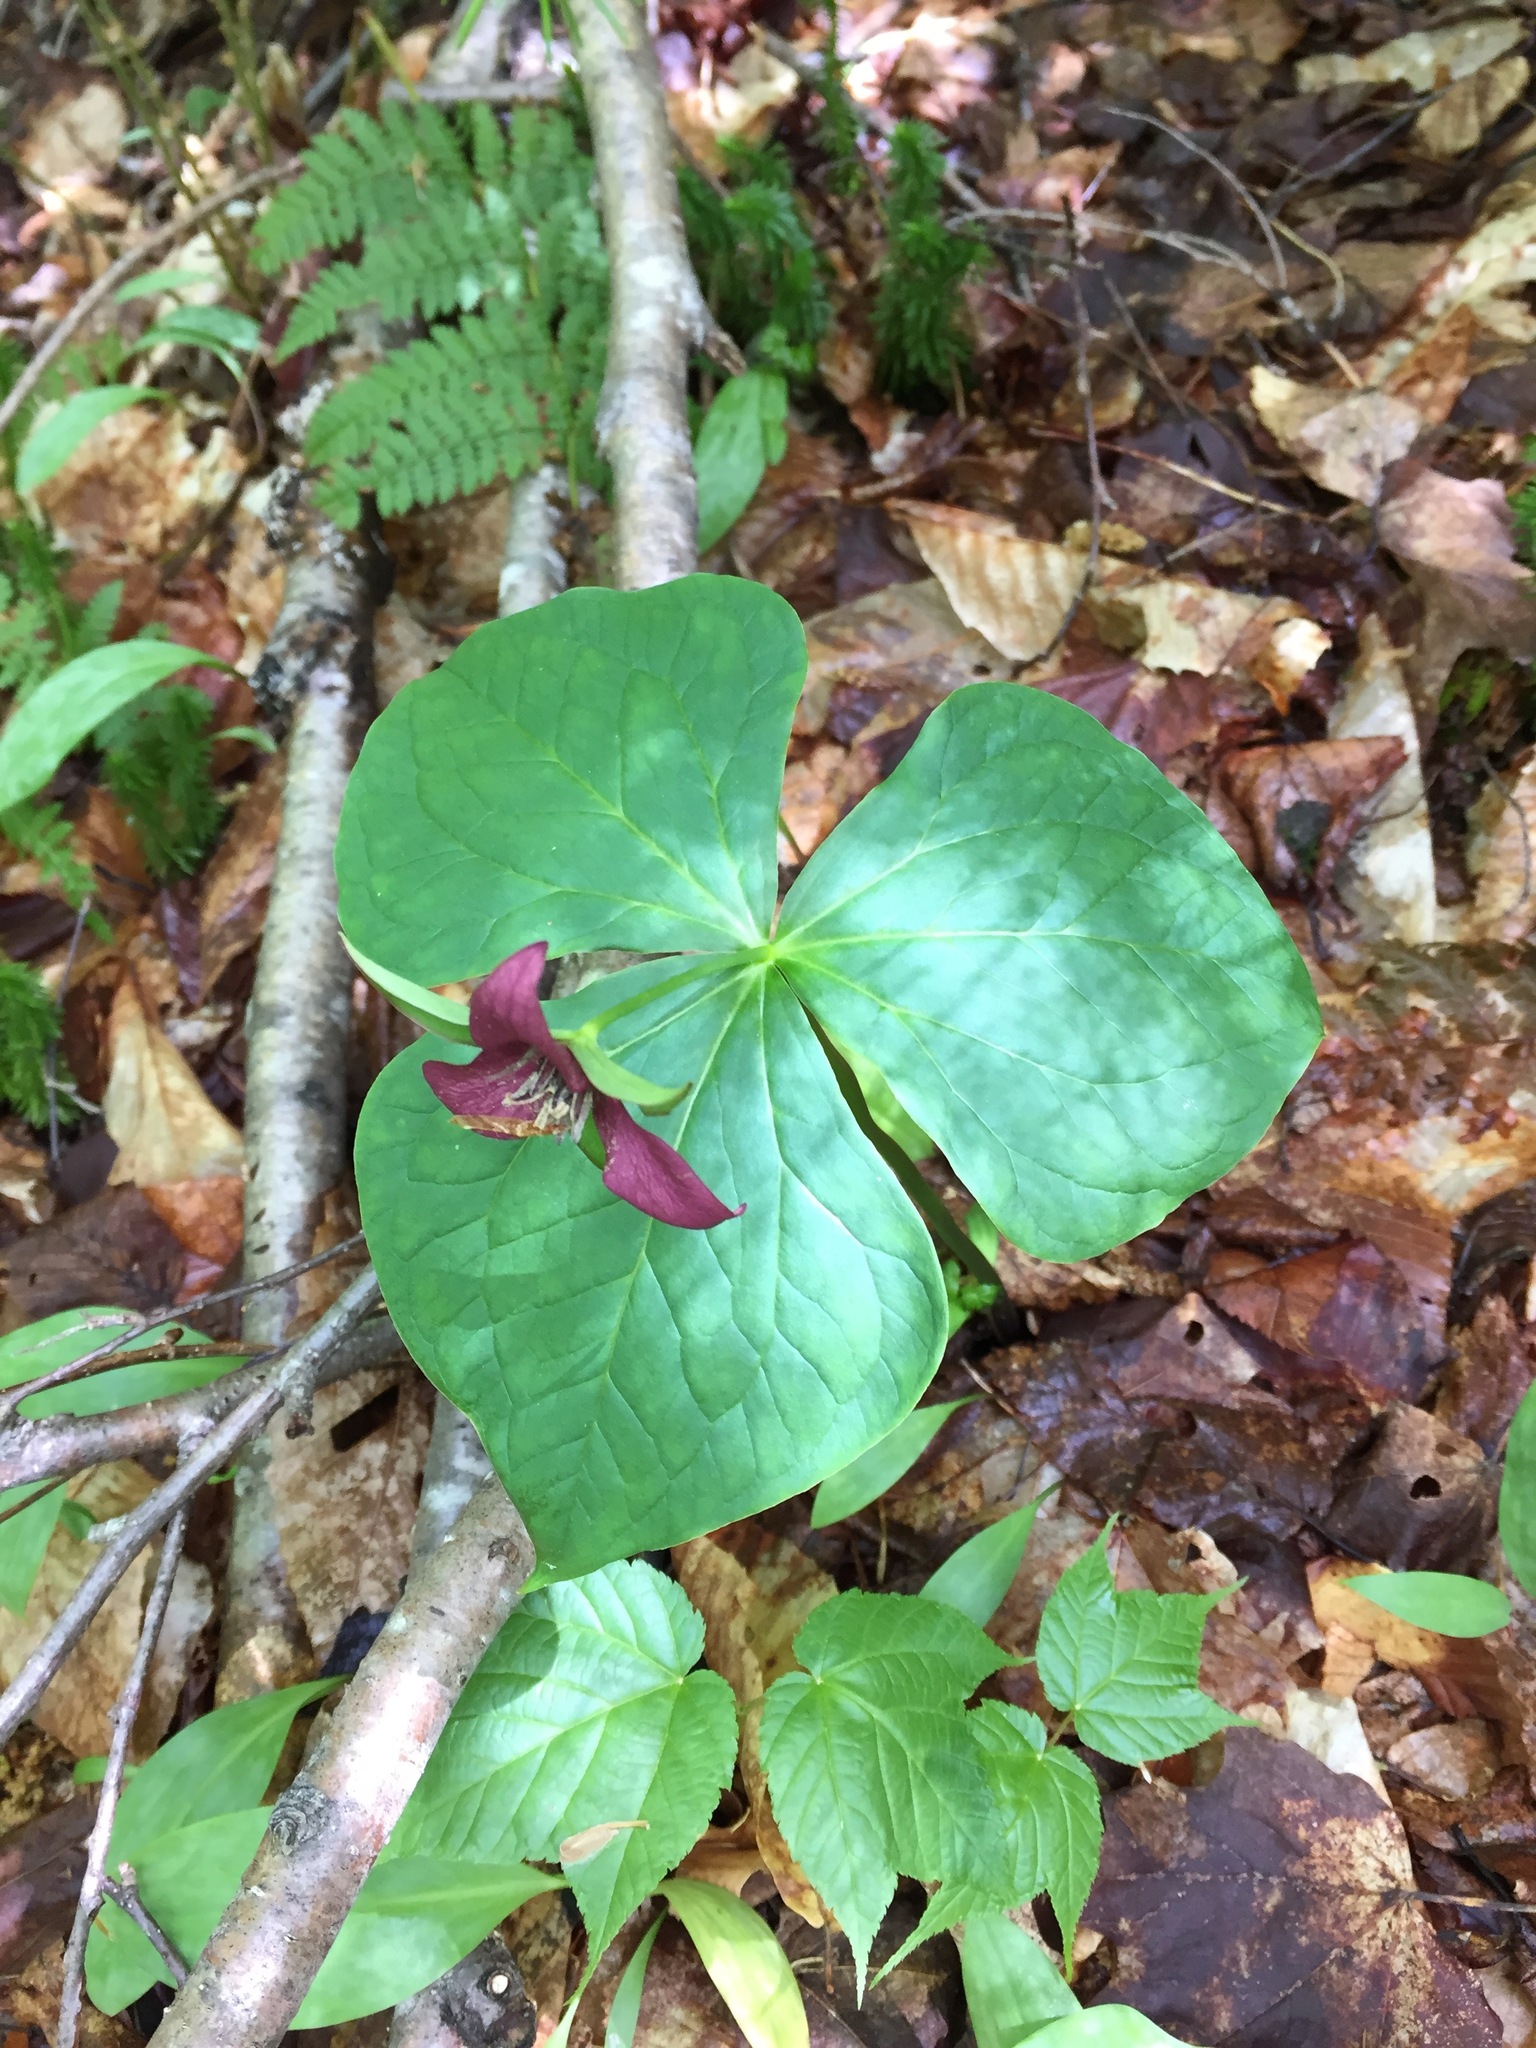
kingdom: Plantae
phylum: Tracheophyta
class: Liliopsida
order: Liliales
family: Melanthiaceae
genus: Trillium
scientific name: Trillium erectum
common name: Purple trillium
